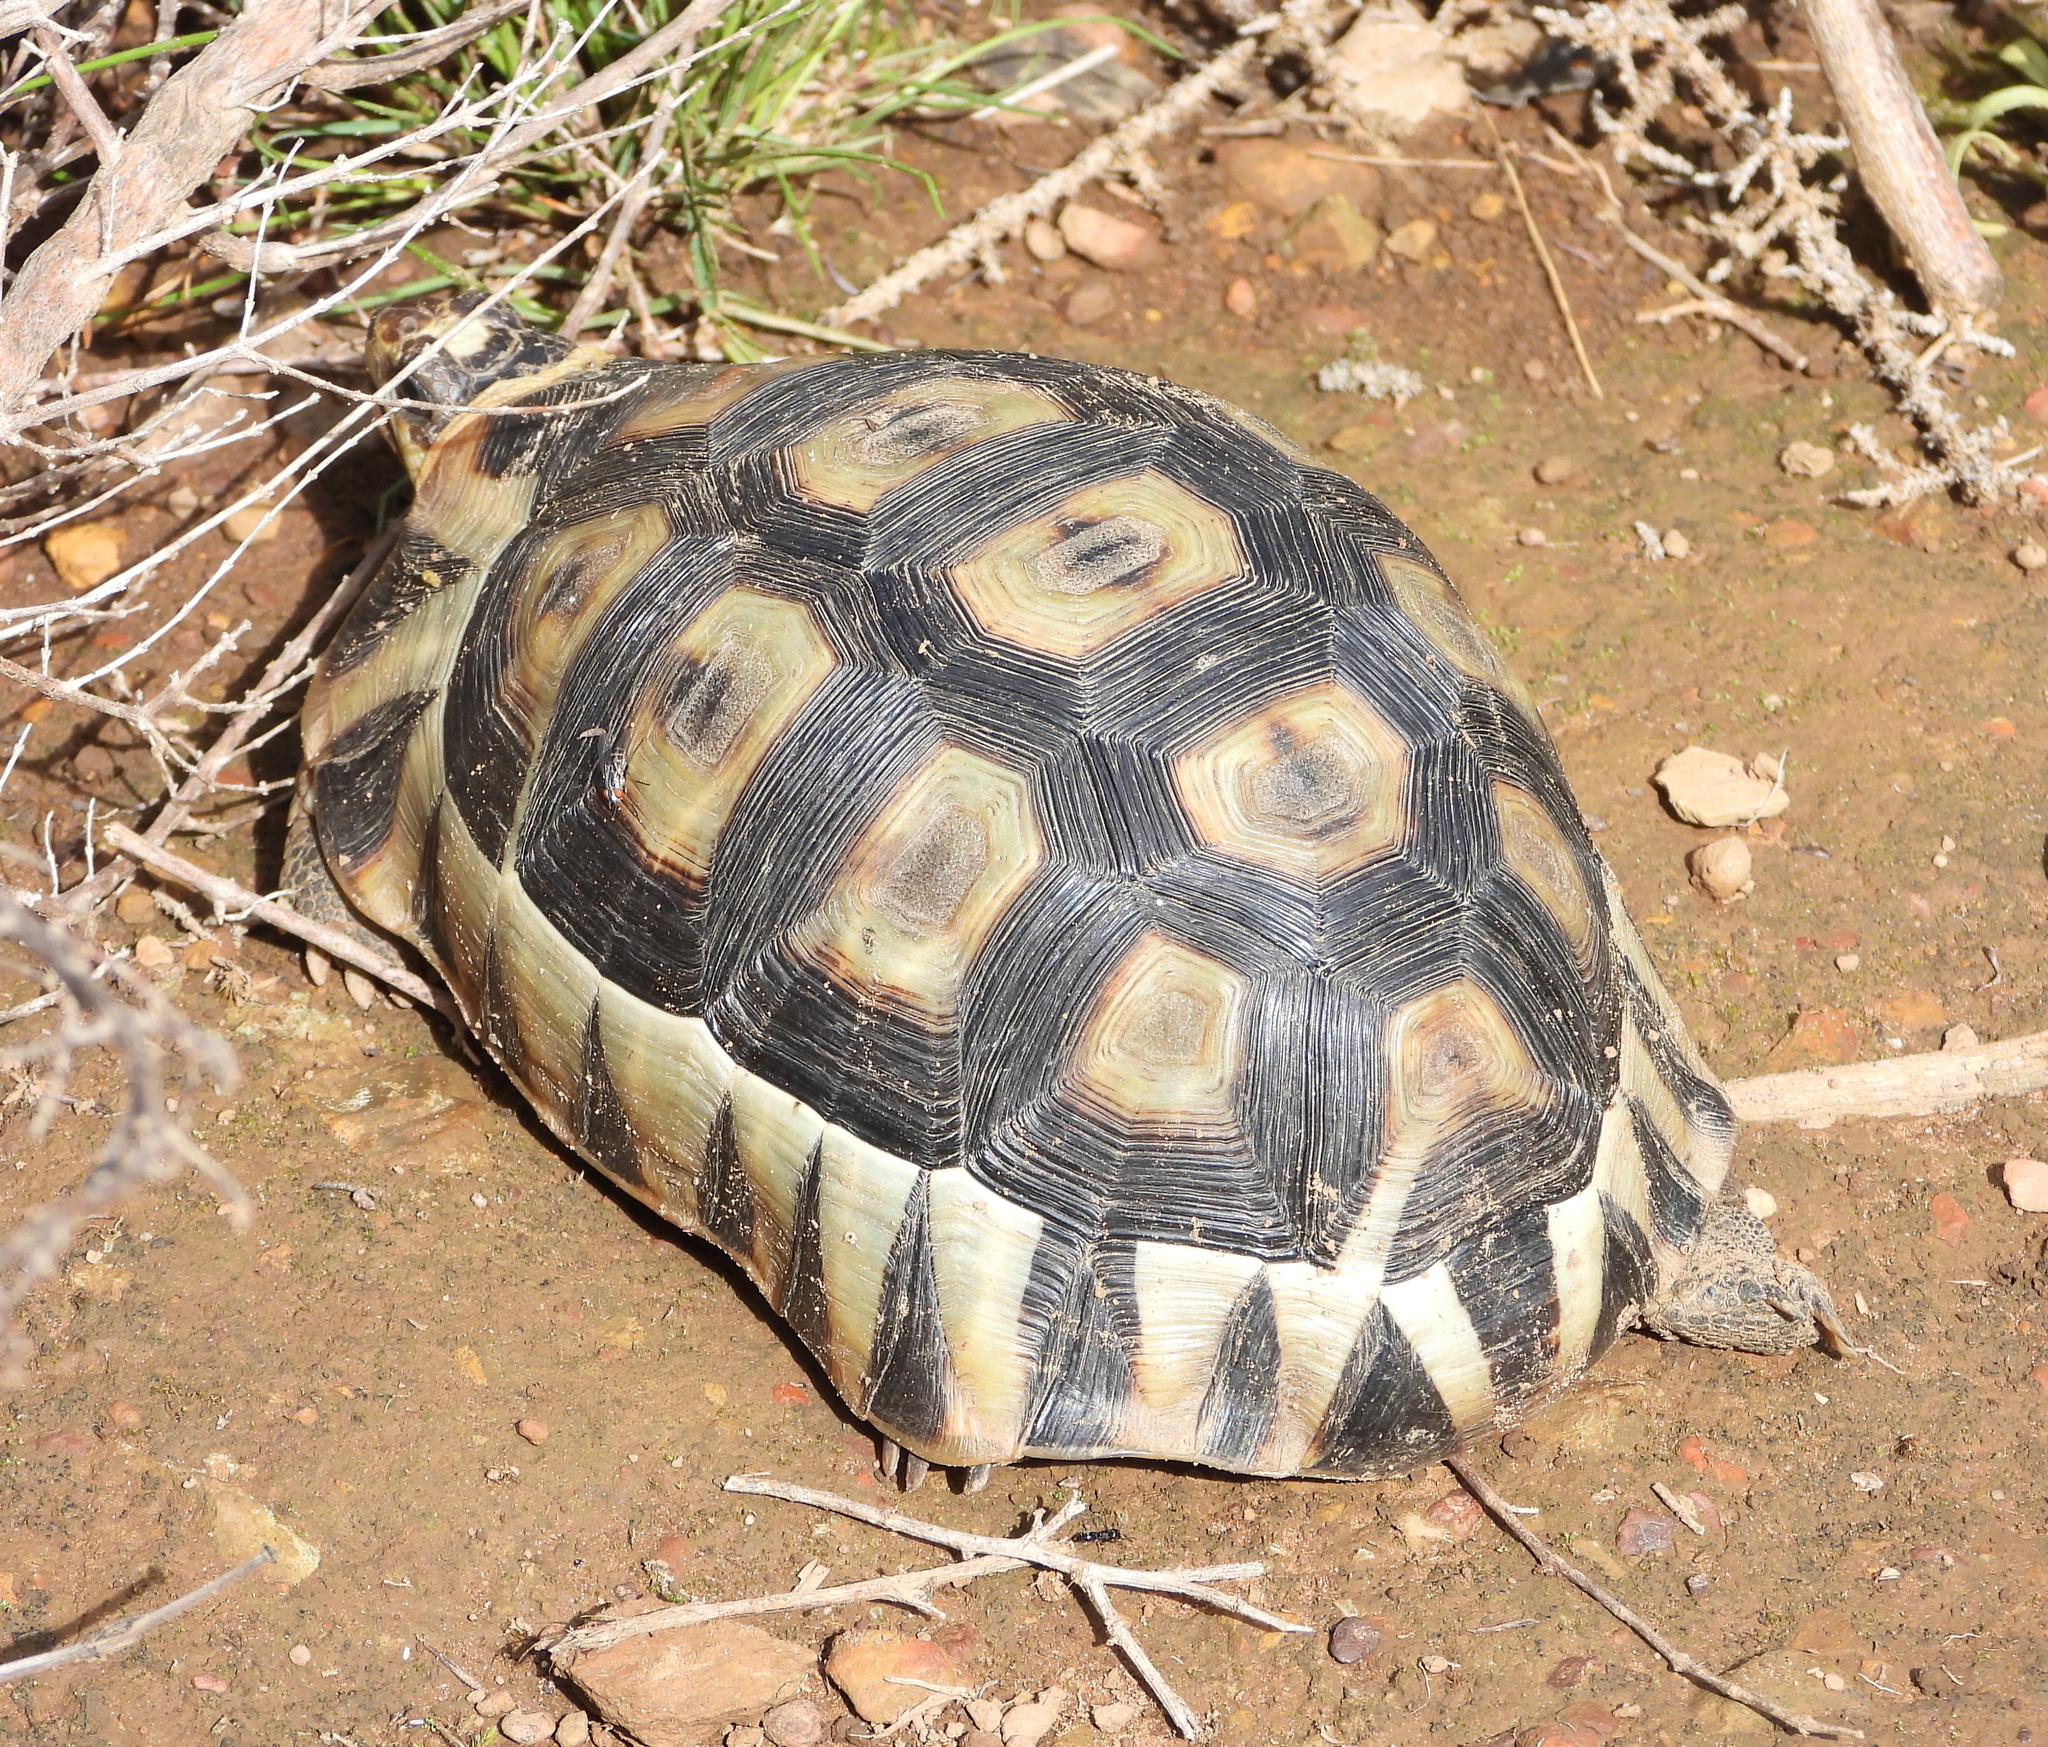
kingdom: Animalia
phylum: Chordata
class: Testudines
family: Testudinidae
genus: Chersina
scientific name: Chersina angulata
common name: South african bowsprit tortoise
